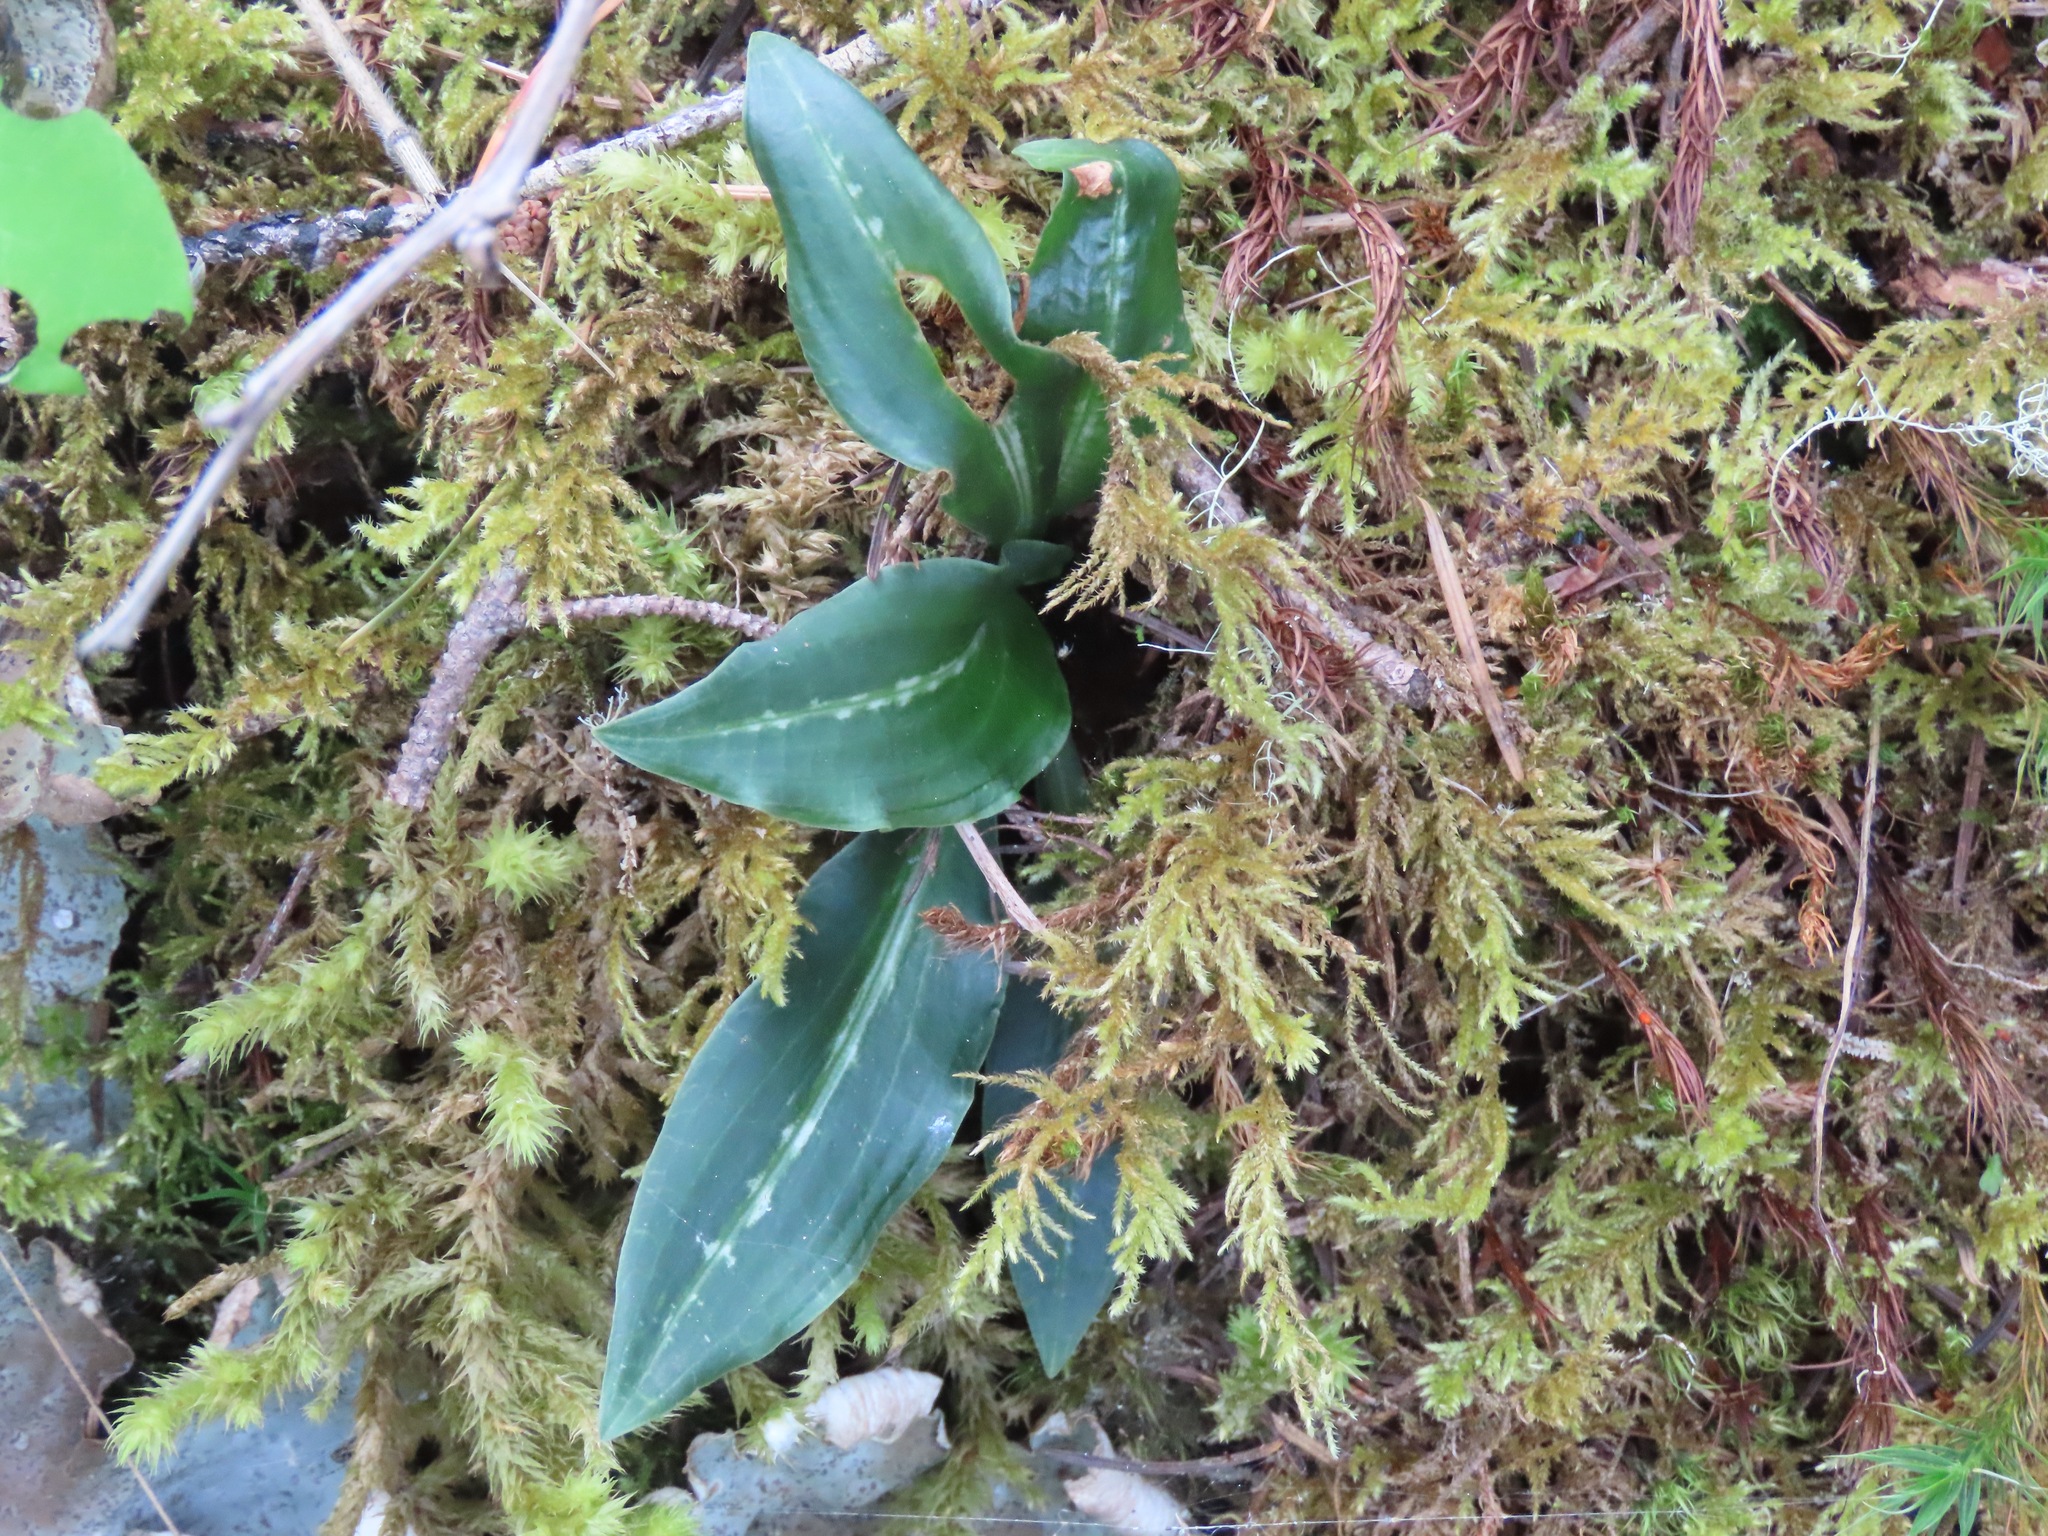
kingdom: Plantae
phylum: Tracheophyta
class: Liliopsida
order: Asparagales
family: Orchidaceae
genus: Goodyera
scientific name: Goodyera oblongifolia
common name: Giant rattlesnake-plantain
